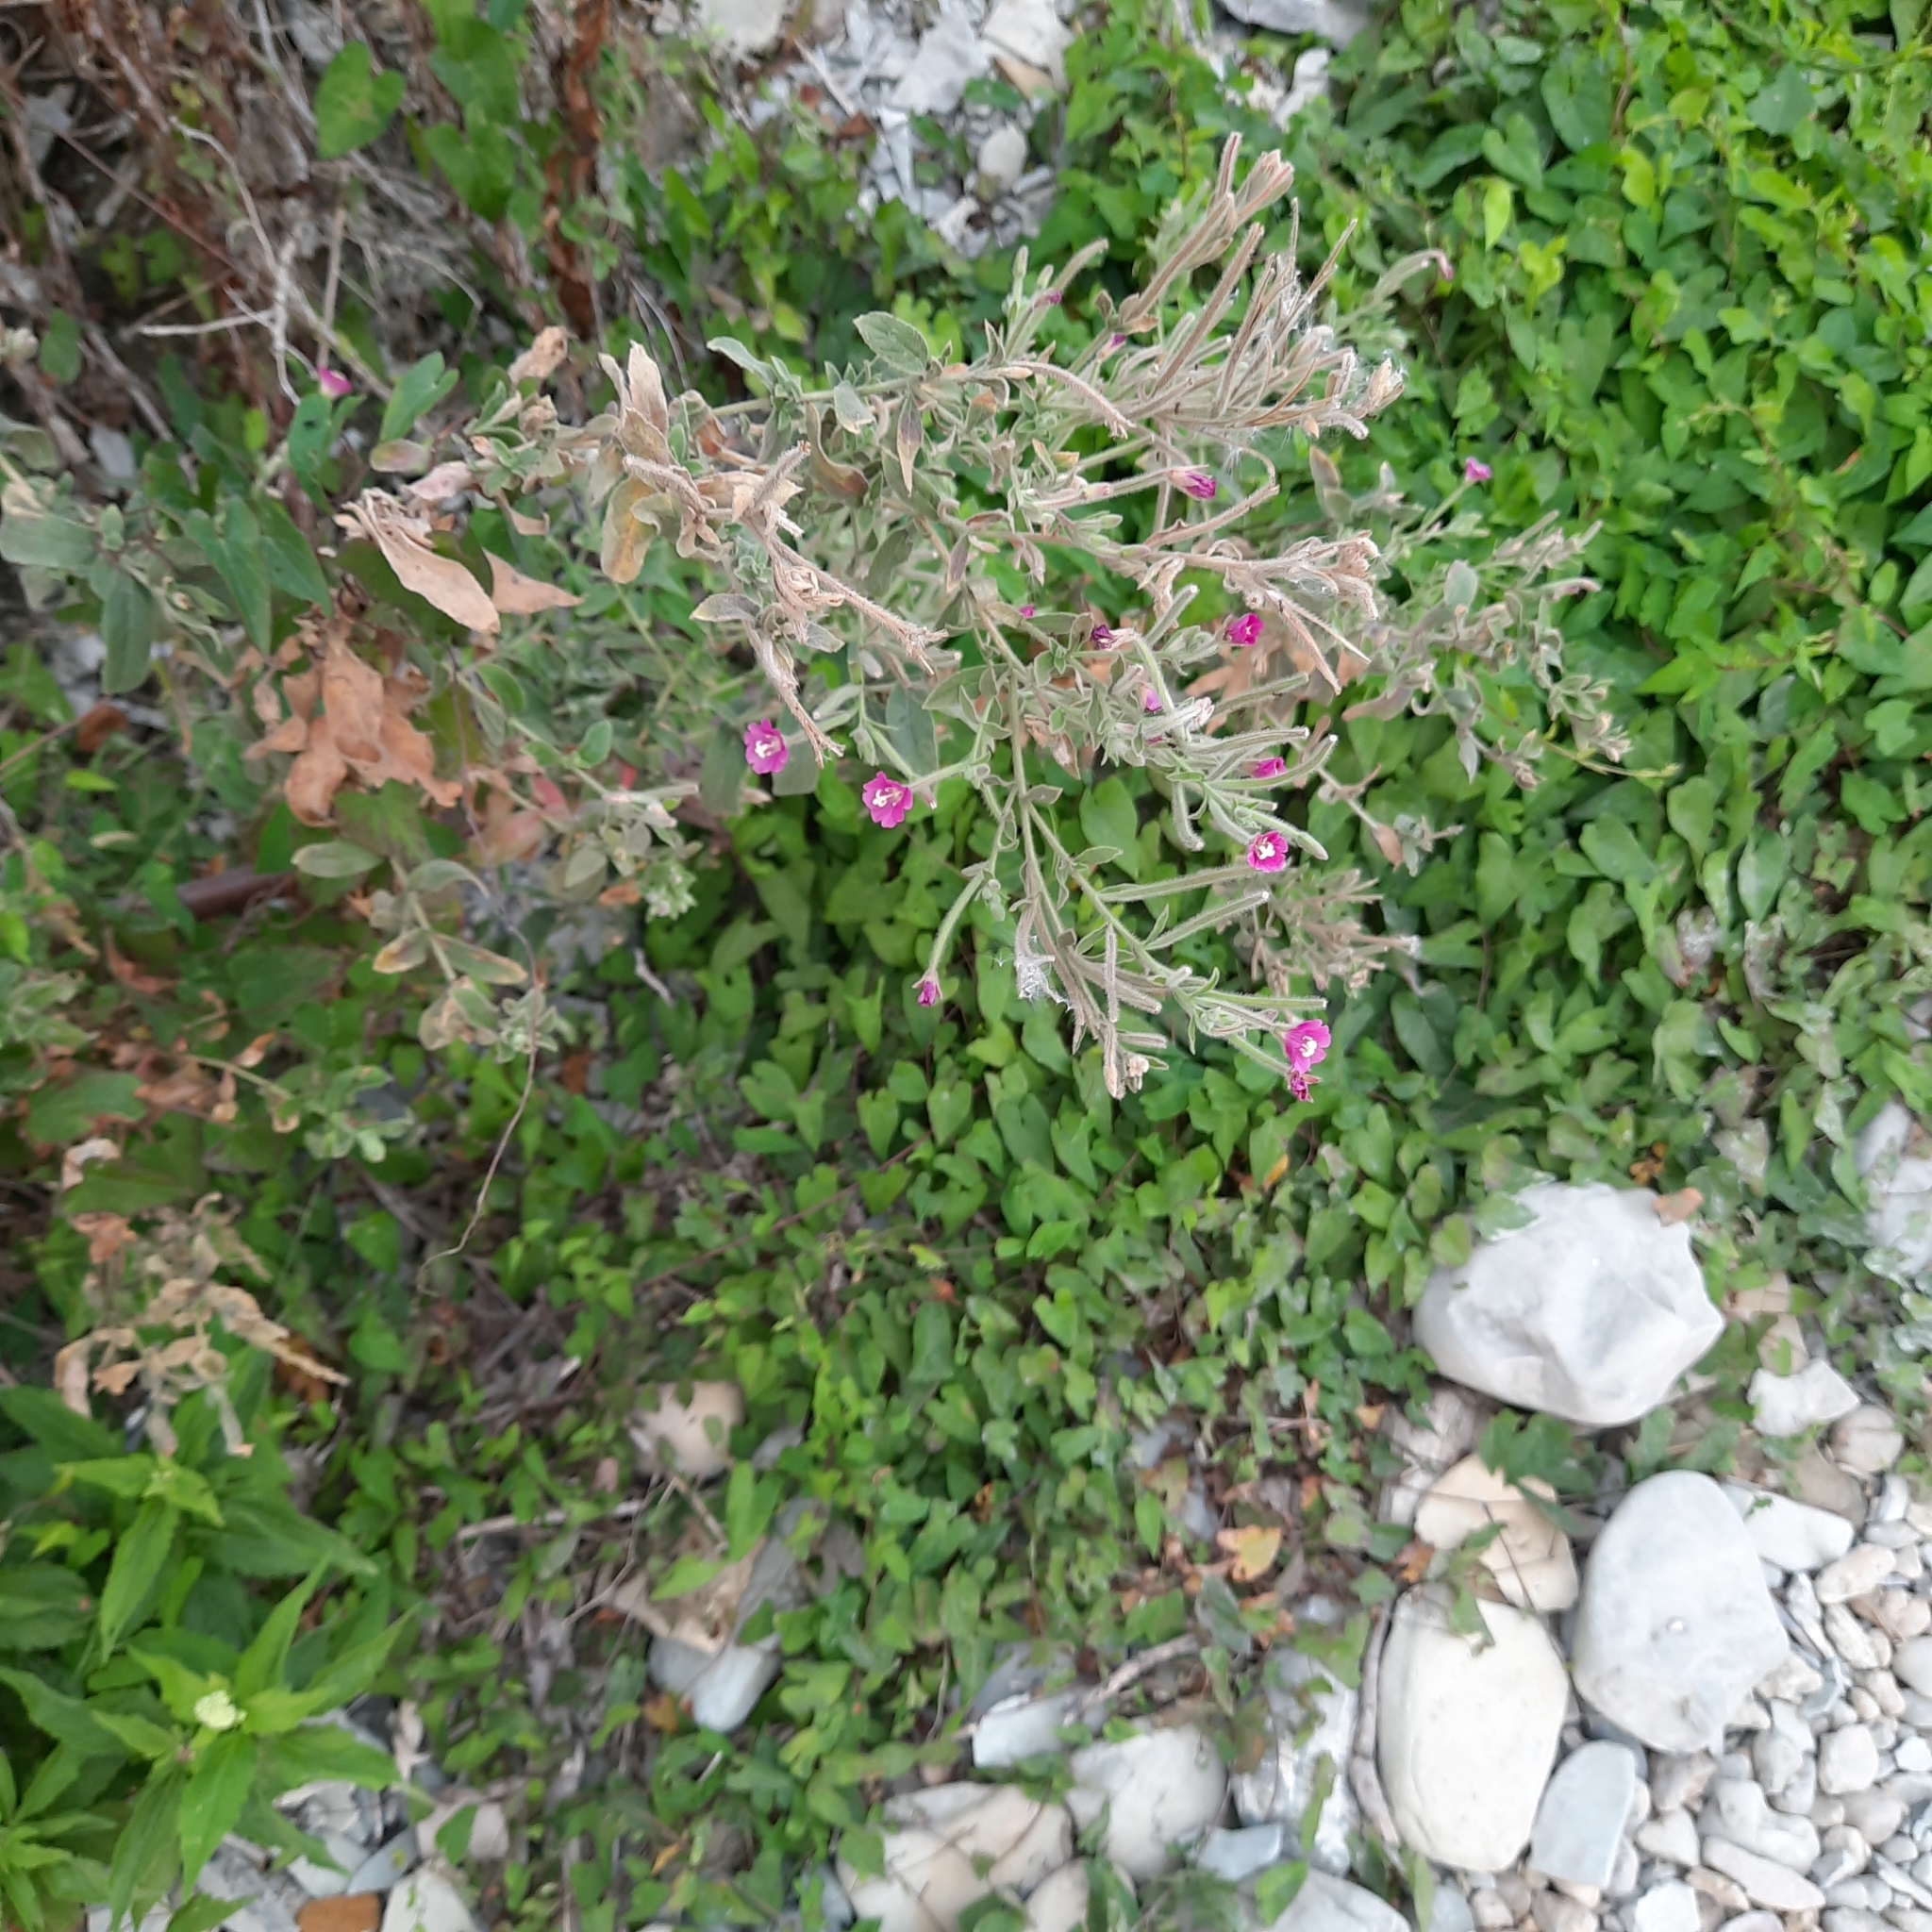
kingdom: Plantae
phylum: Tracheophyta
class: Magnoliopsida
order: Myrtales
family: Onagraceae
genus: Epilobium
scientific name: Epilobium hirsutum
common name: Great willowherb
